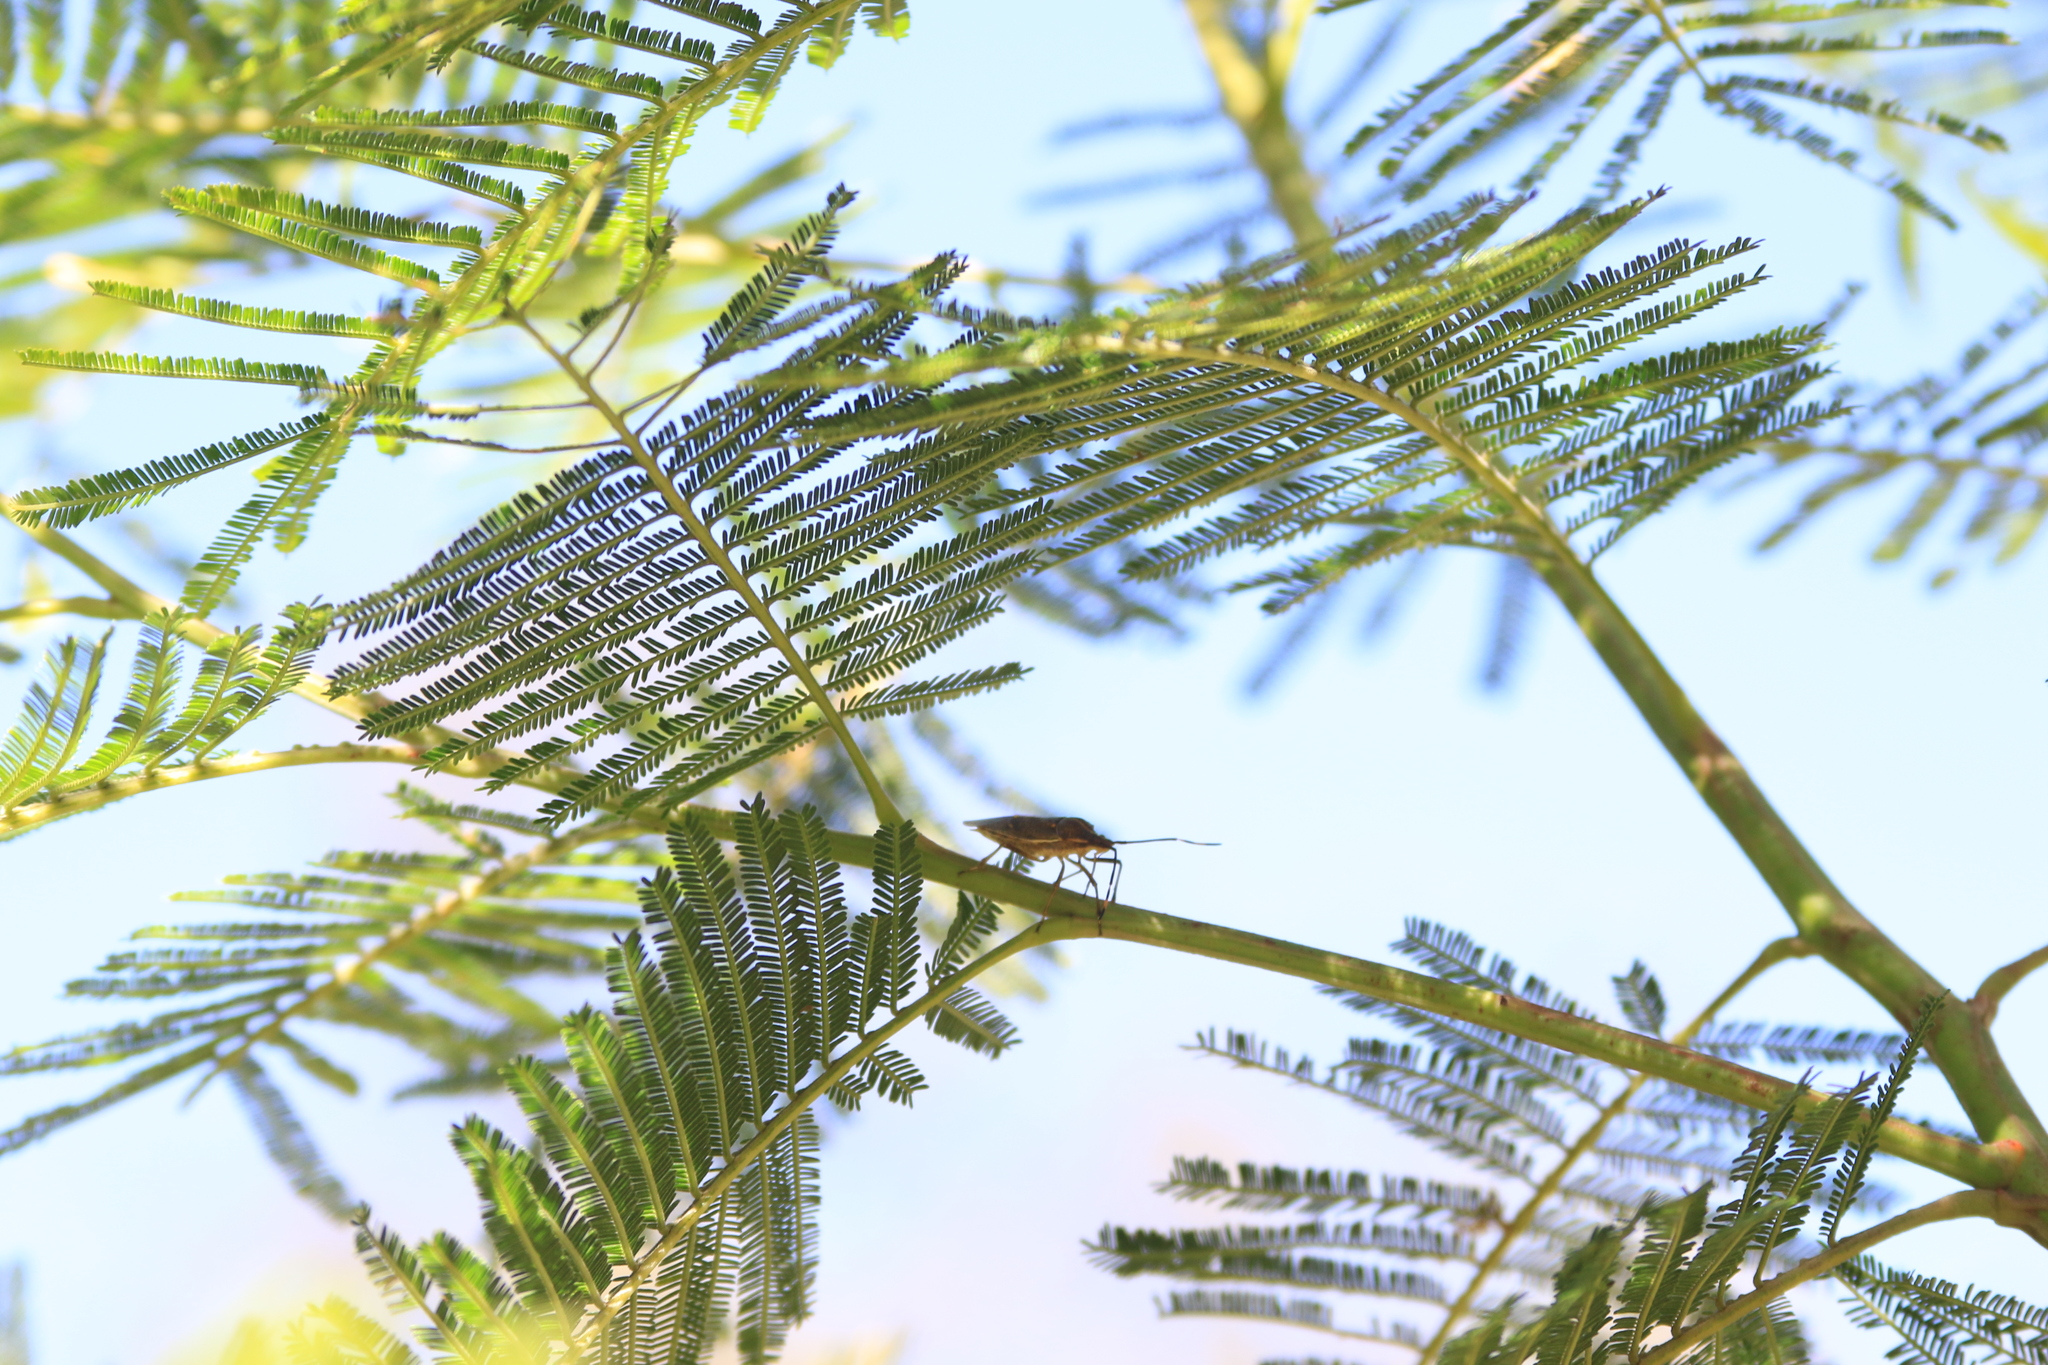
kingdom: Animalia
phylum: Arthropoda
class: Insecta
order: Hemiptera
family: Pentatomidae
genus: Omyta
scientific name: Omyta centrolineata
